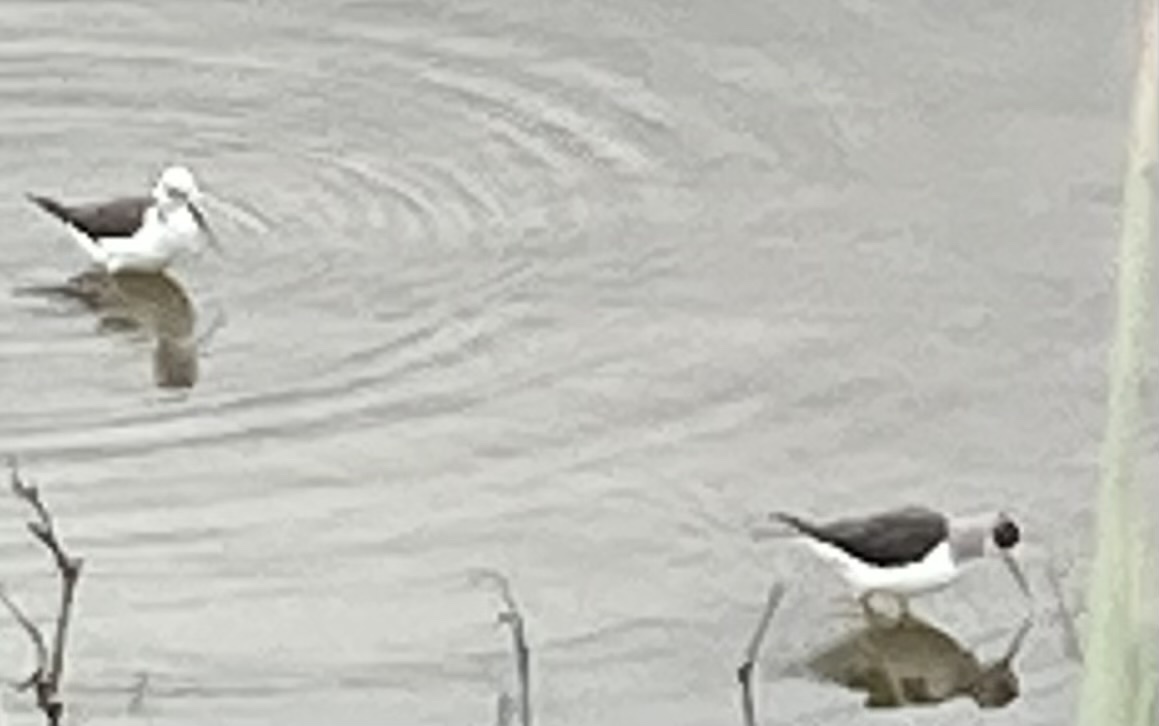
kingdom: Animalia
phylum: Chordata
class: Aves
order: Charadriiformes
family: Recurvirostridae
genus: Himantopus
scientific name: Himantopus himantopus
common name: Black-winged stilt
